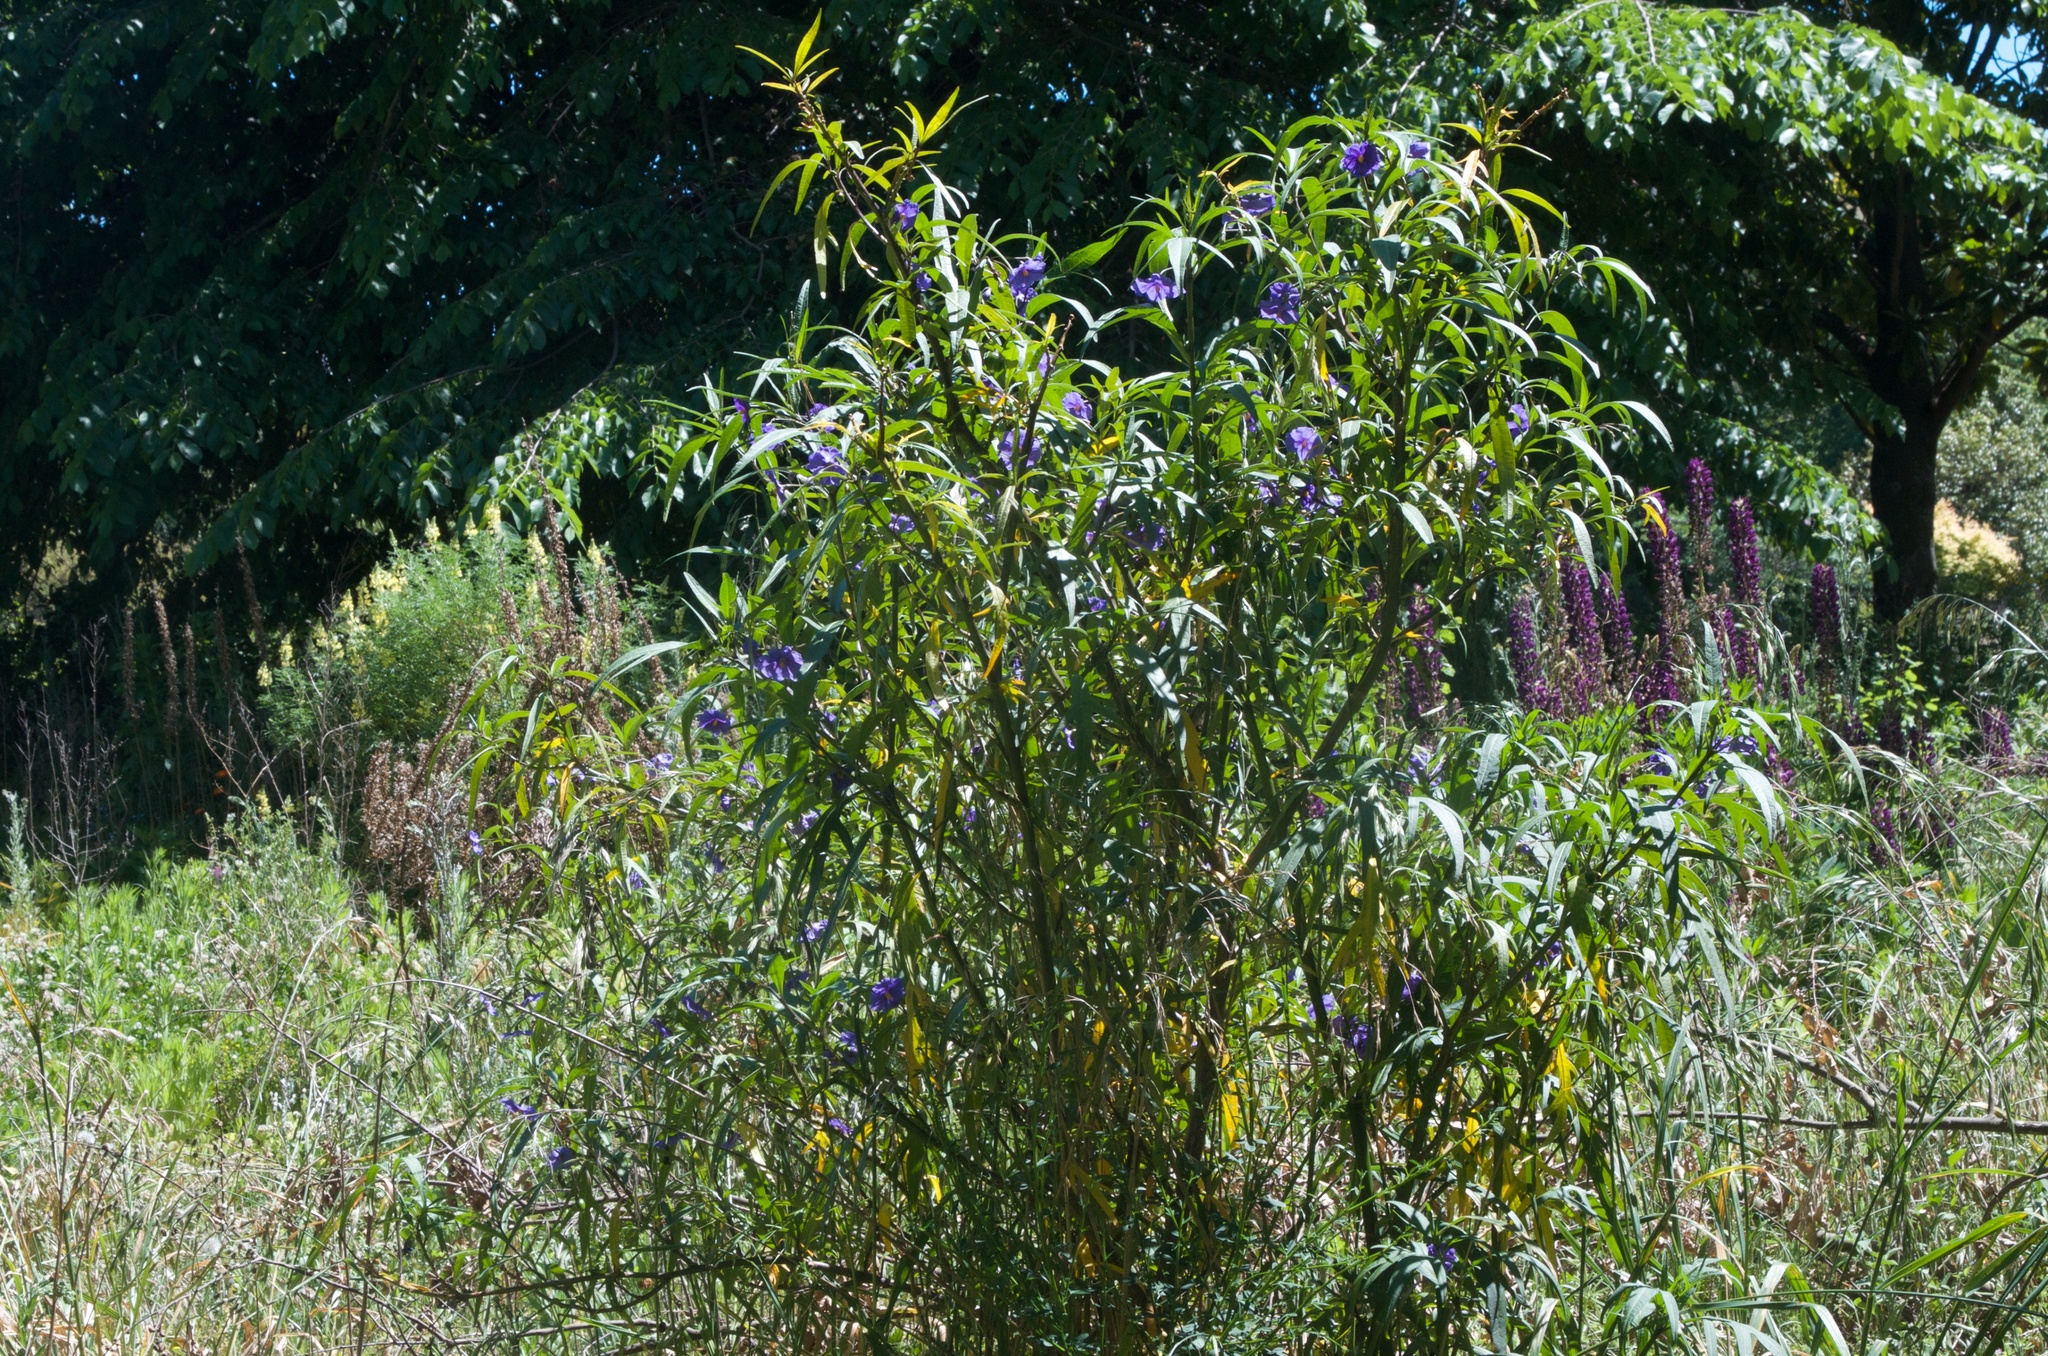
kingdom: Plantae
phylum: Tracheophyta
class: Magnoliopsida
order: Solanales
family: Solanaceae
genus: Solanum
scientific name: Solanum laciniatum
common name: Kangaroo-apple
